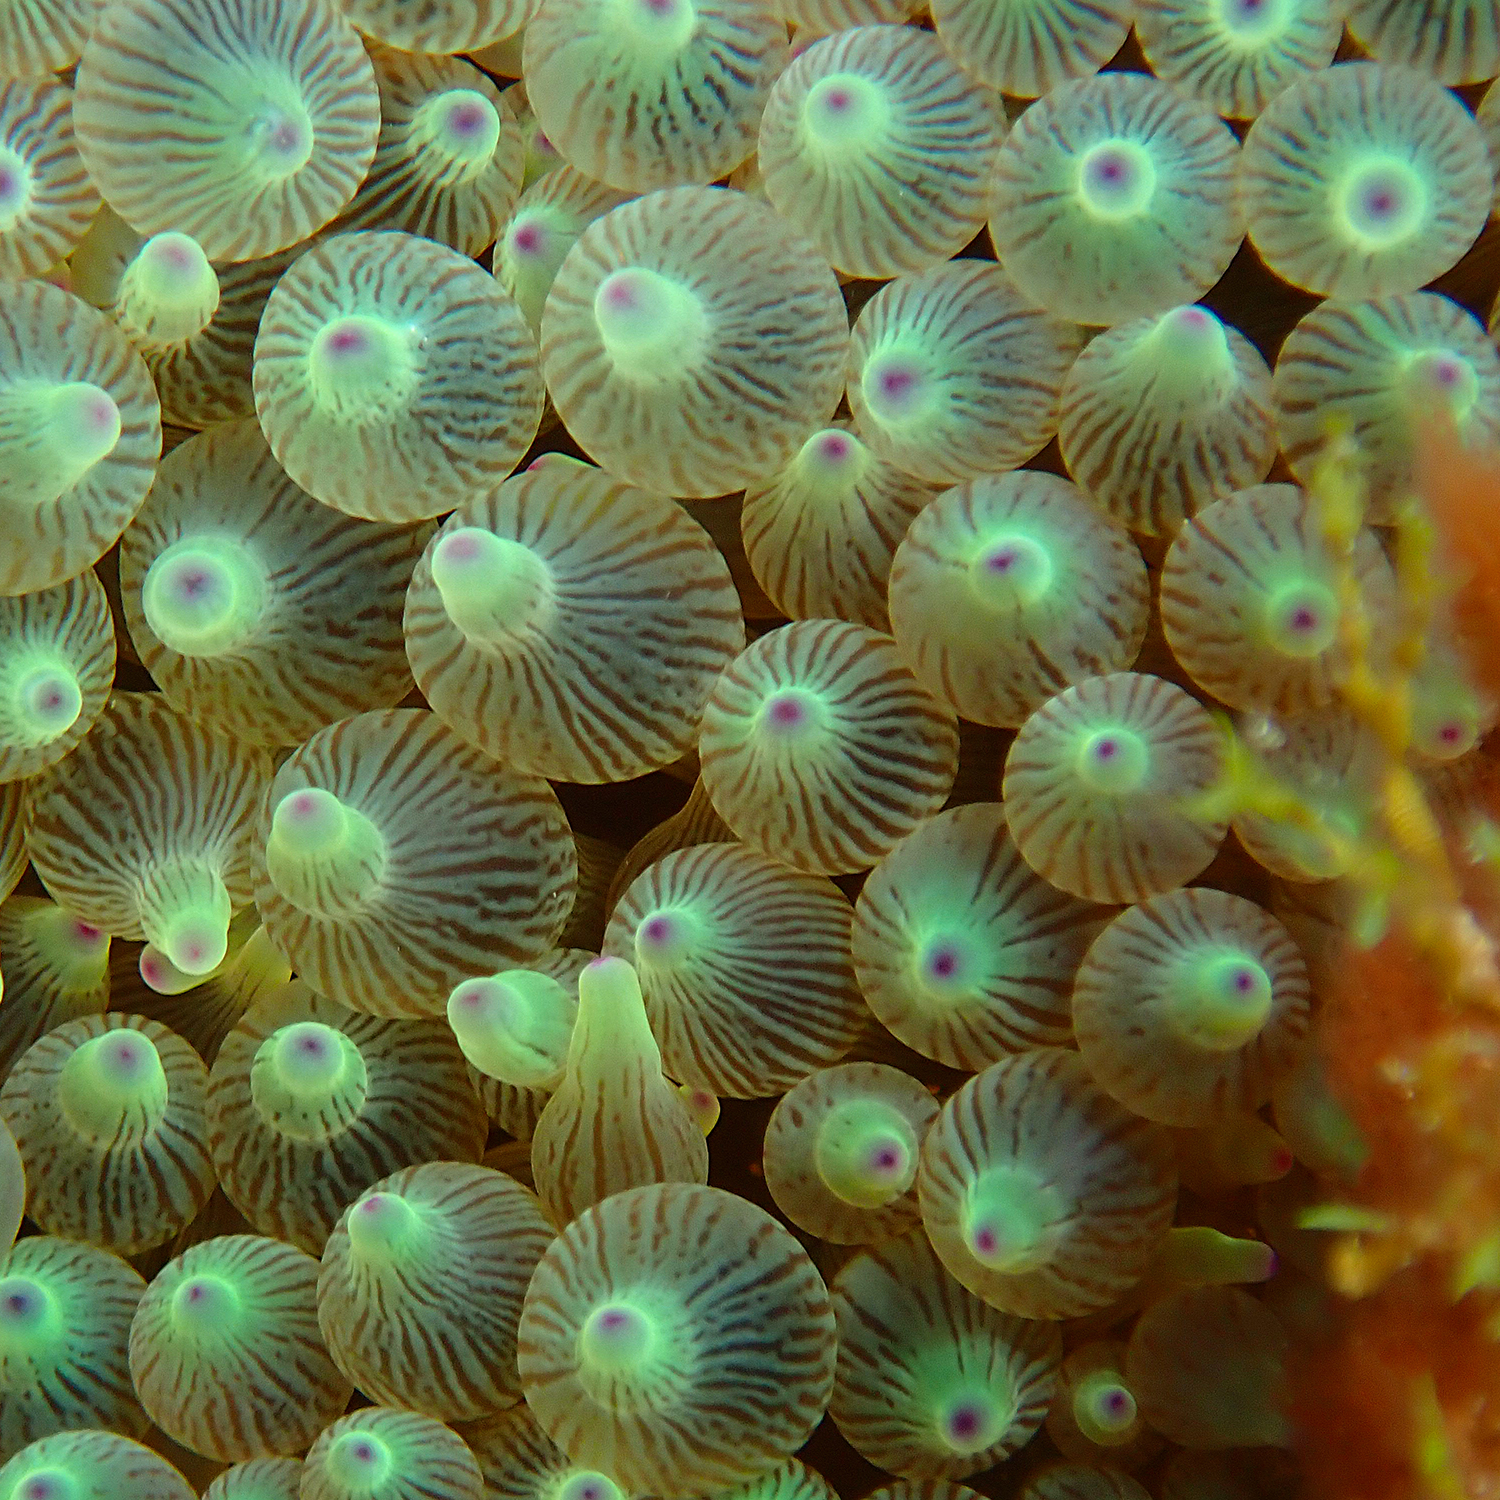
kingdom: Animalia
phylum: Cnidaria
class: Anthozoa
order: Actiniaria
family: Actiniidae
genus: Entacmaea
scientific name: Entacmaea quadricolor
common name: Bulb tentacle sea anemone
